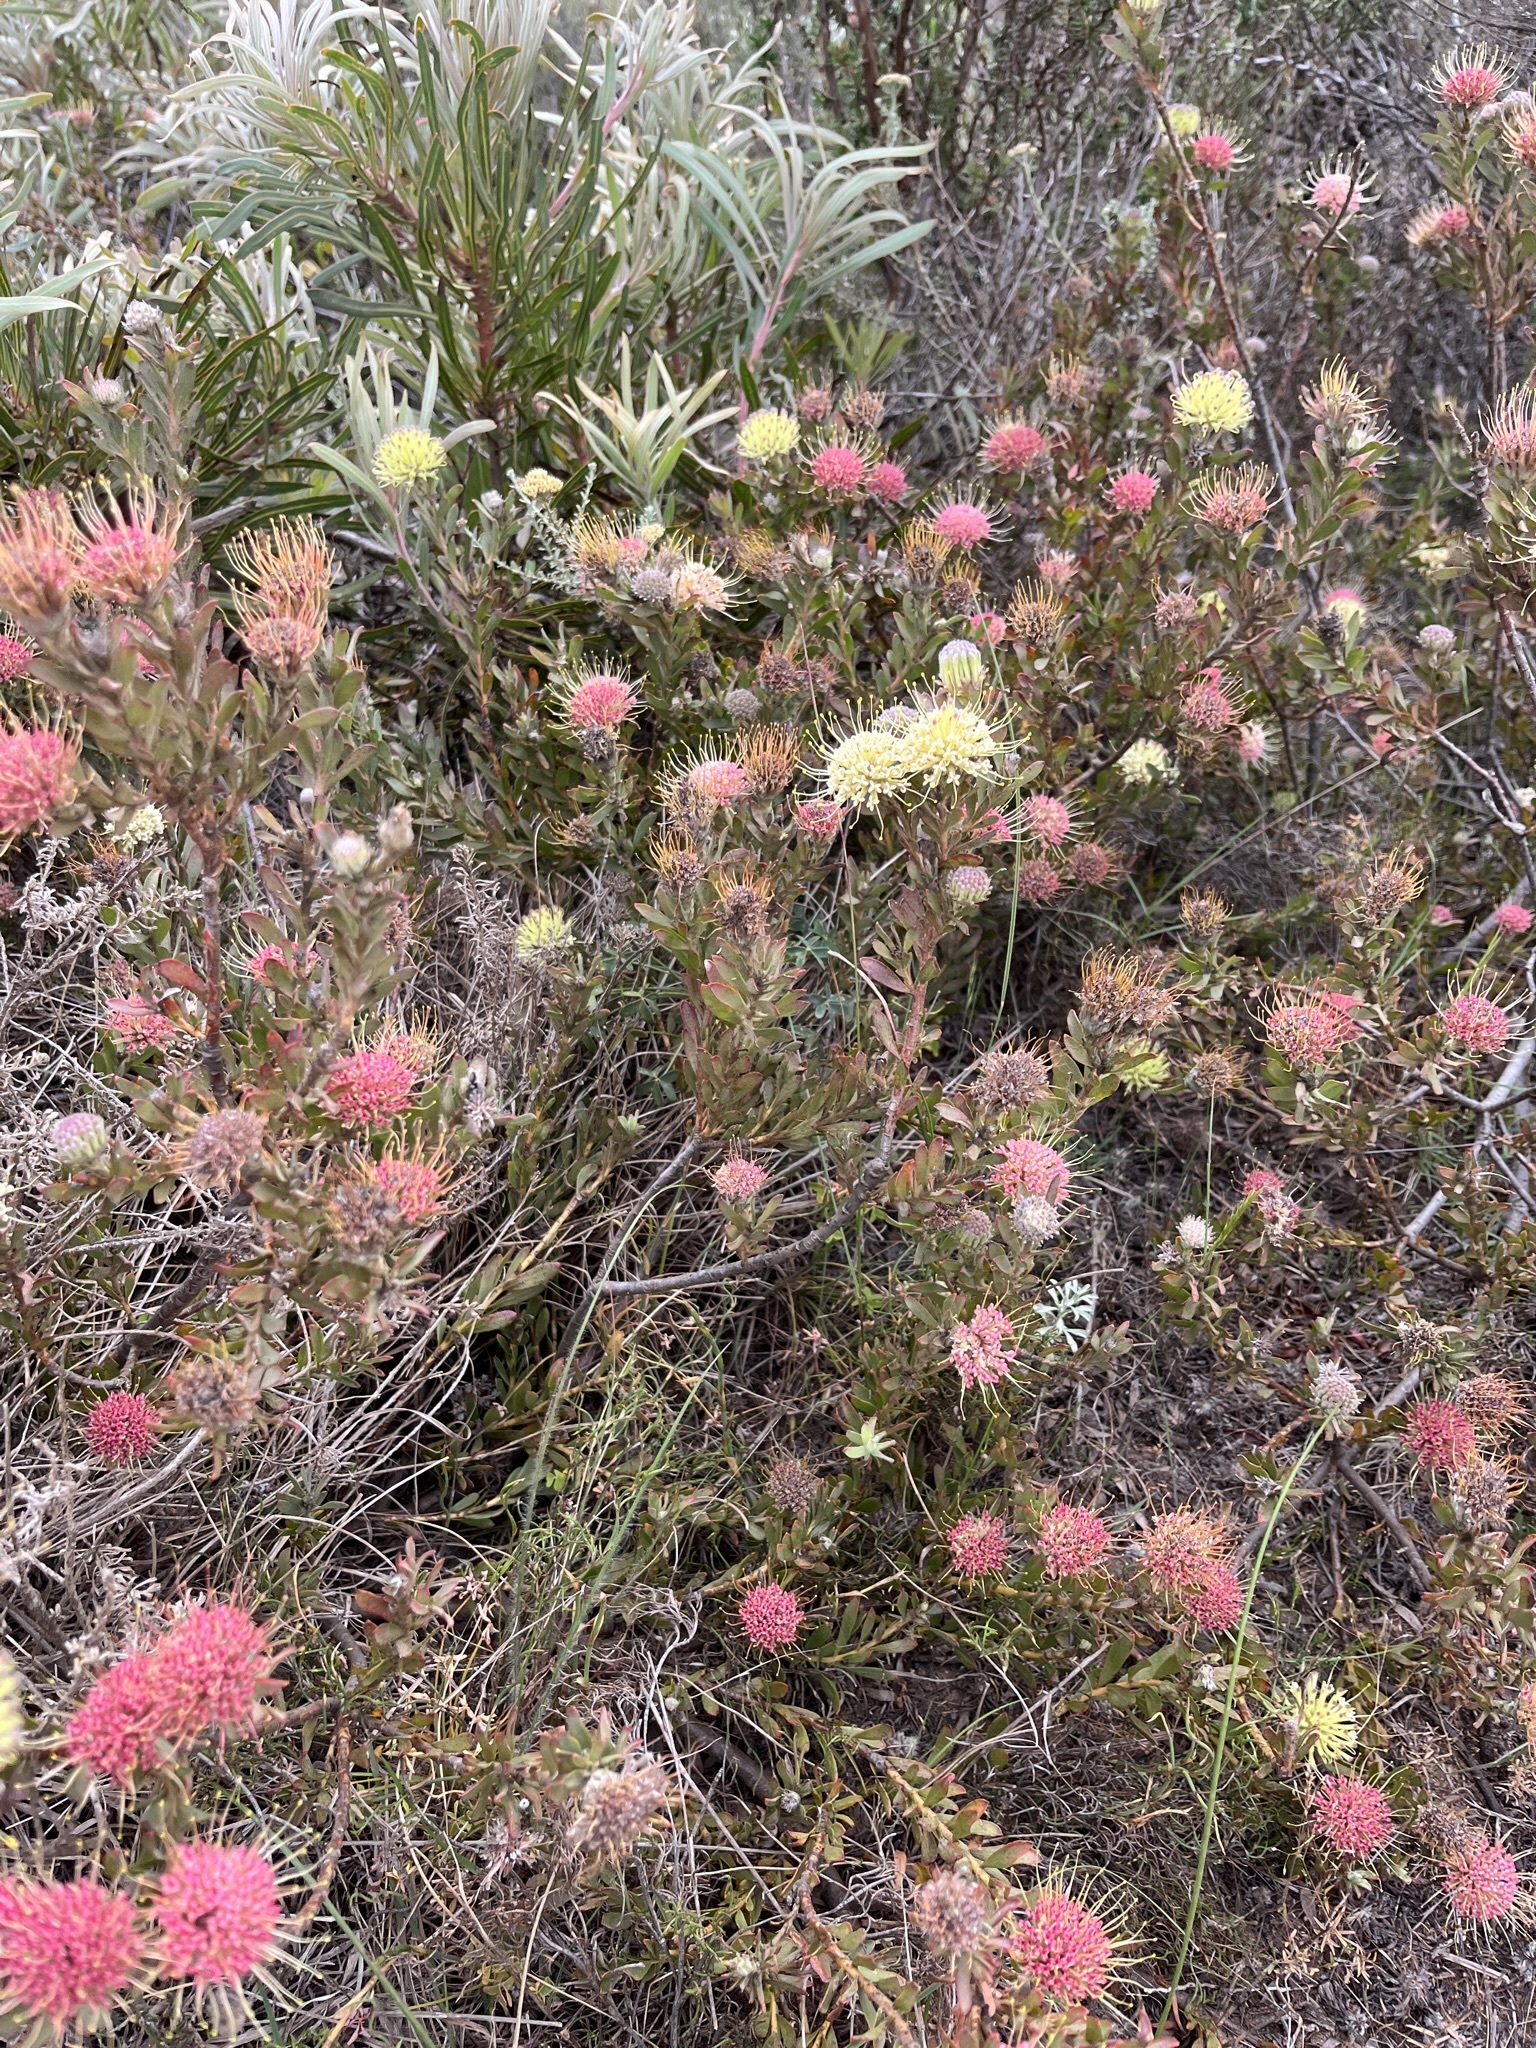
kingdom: Plantae
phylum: Tracheophyta
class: Magnoliopsida
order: Proteales
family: Proteaceae
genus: Leucospermum
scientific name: Leucospermum heterophyllum
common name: Trident pincushion
